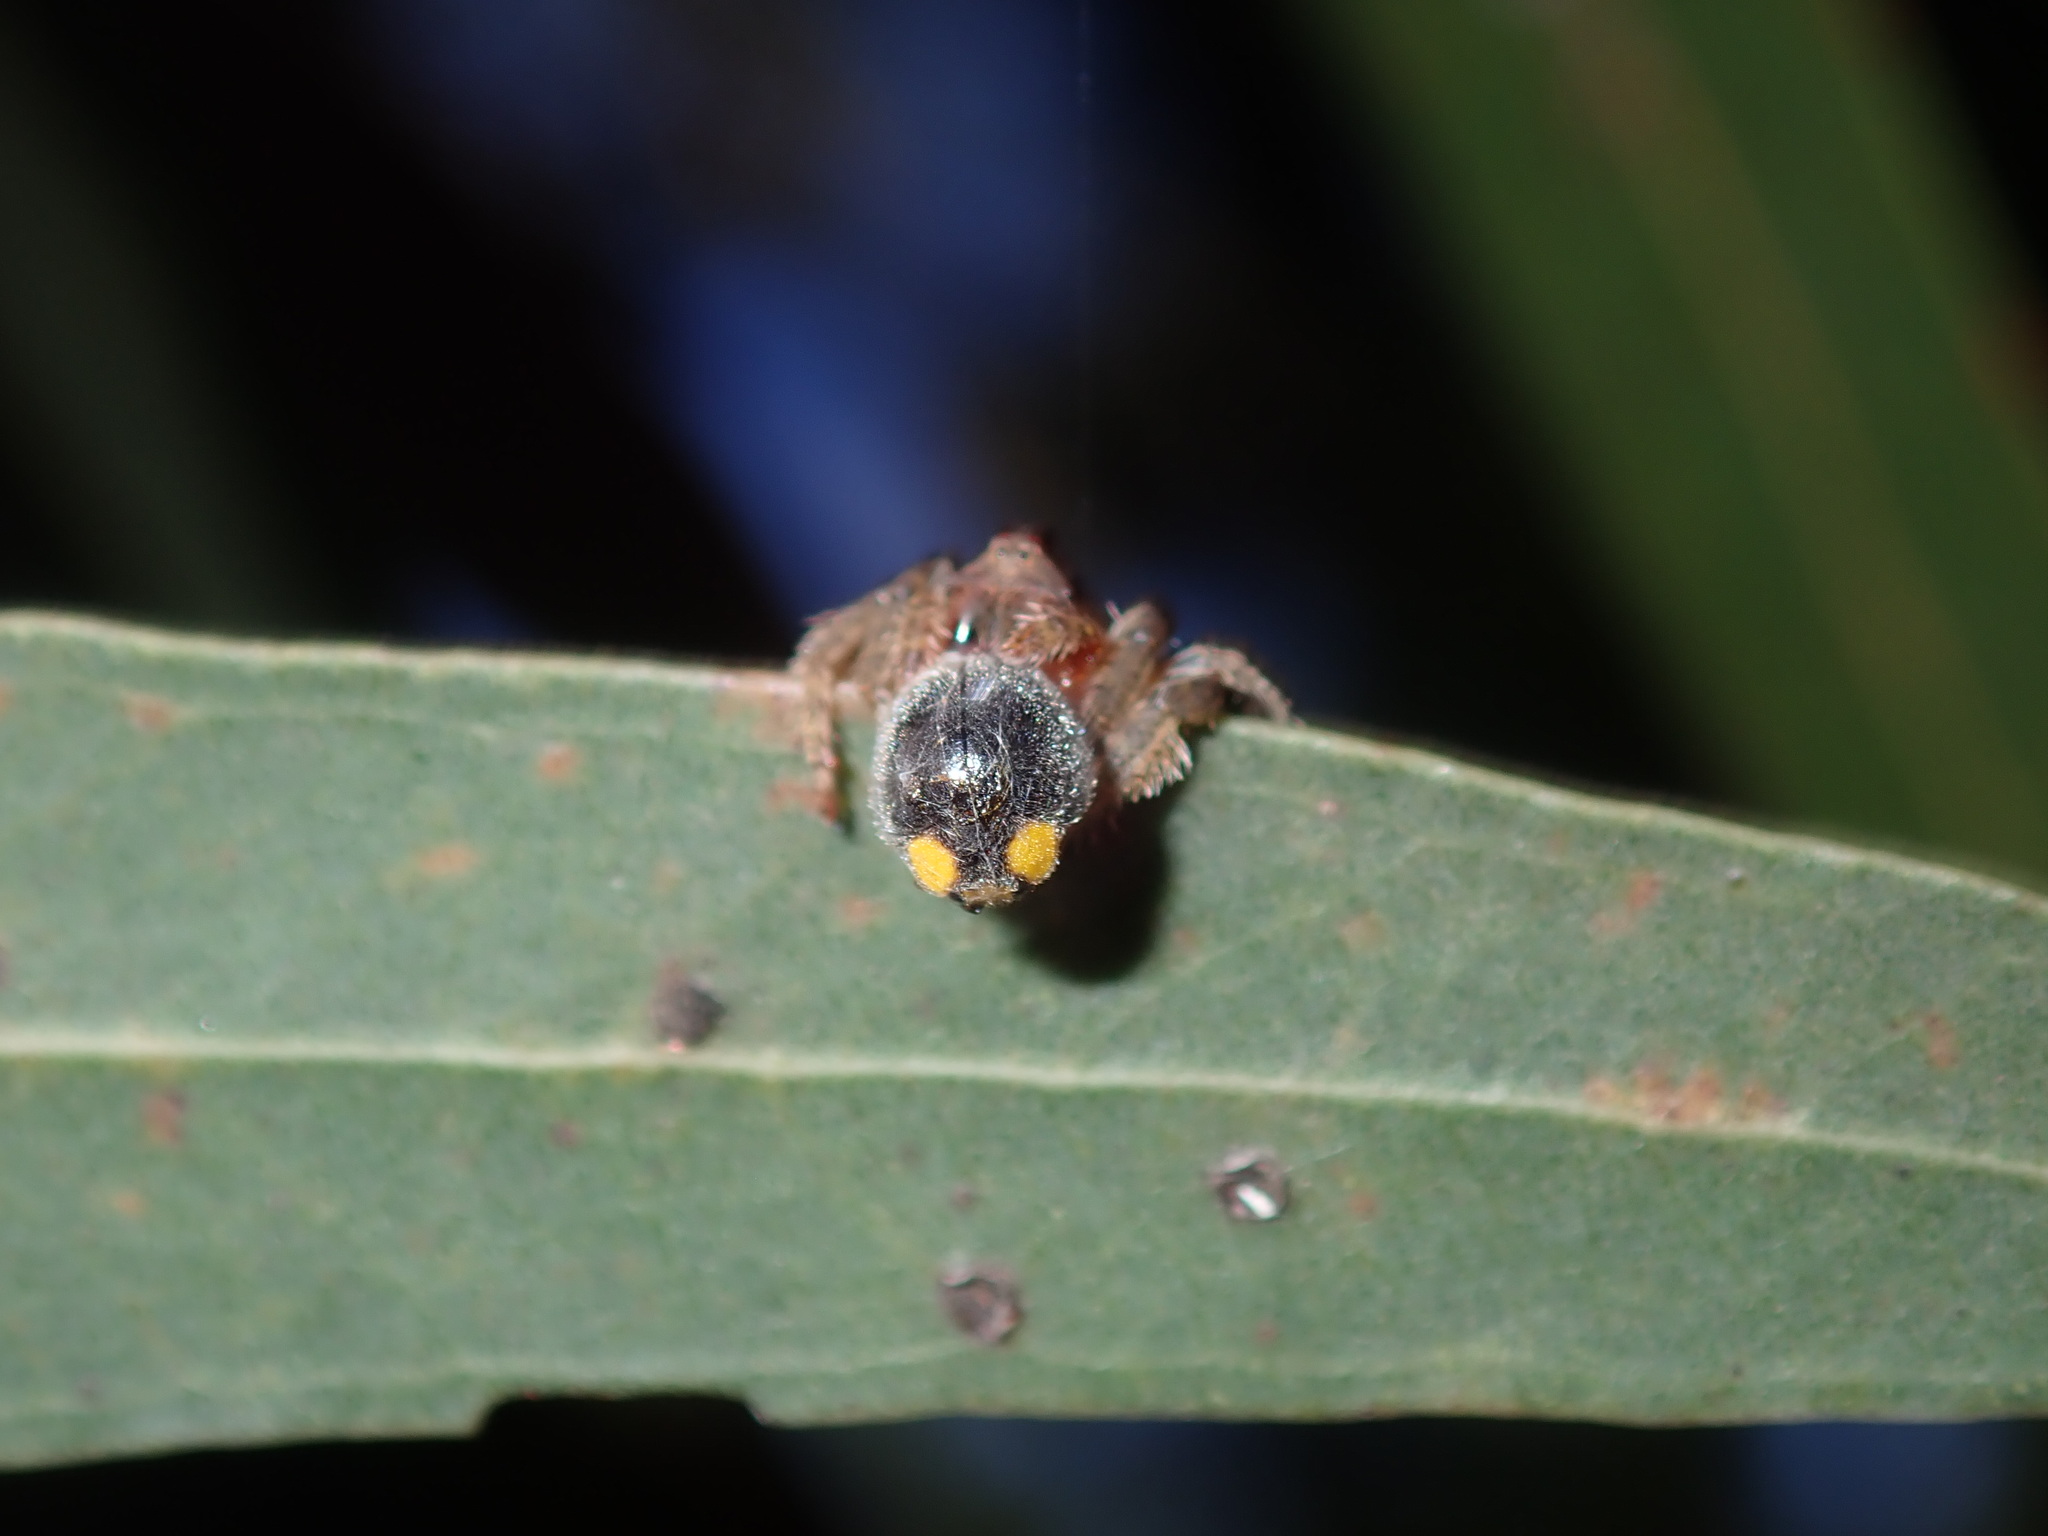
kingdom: Animalia
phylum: Arthropoda
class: Insecta
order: Coleoptera
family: Coccinellidae
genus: Scymnodes
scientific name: Scymnodes lividigaster
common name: Yellowshouldered lady beetle
